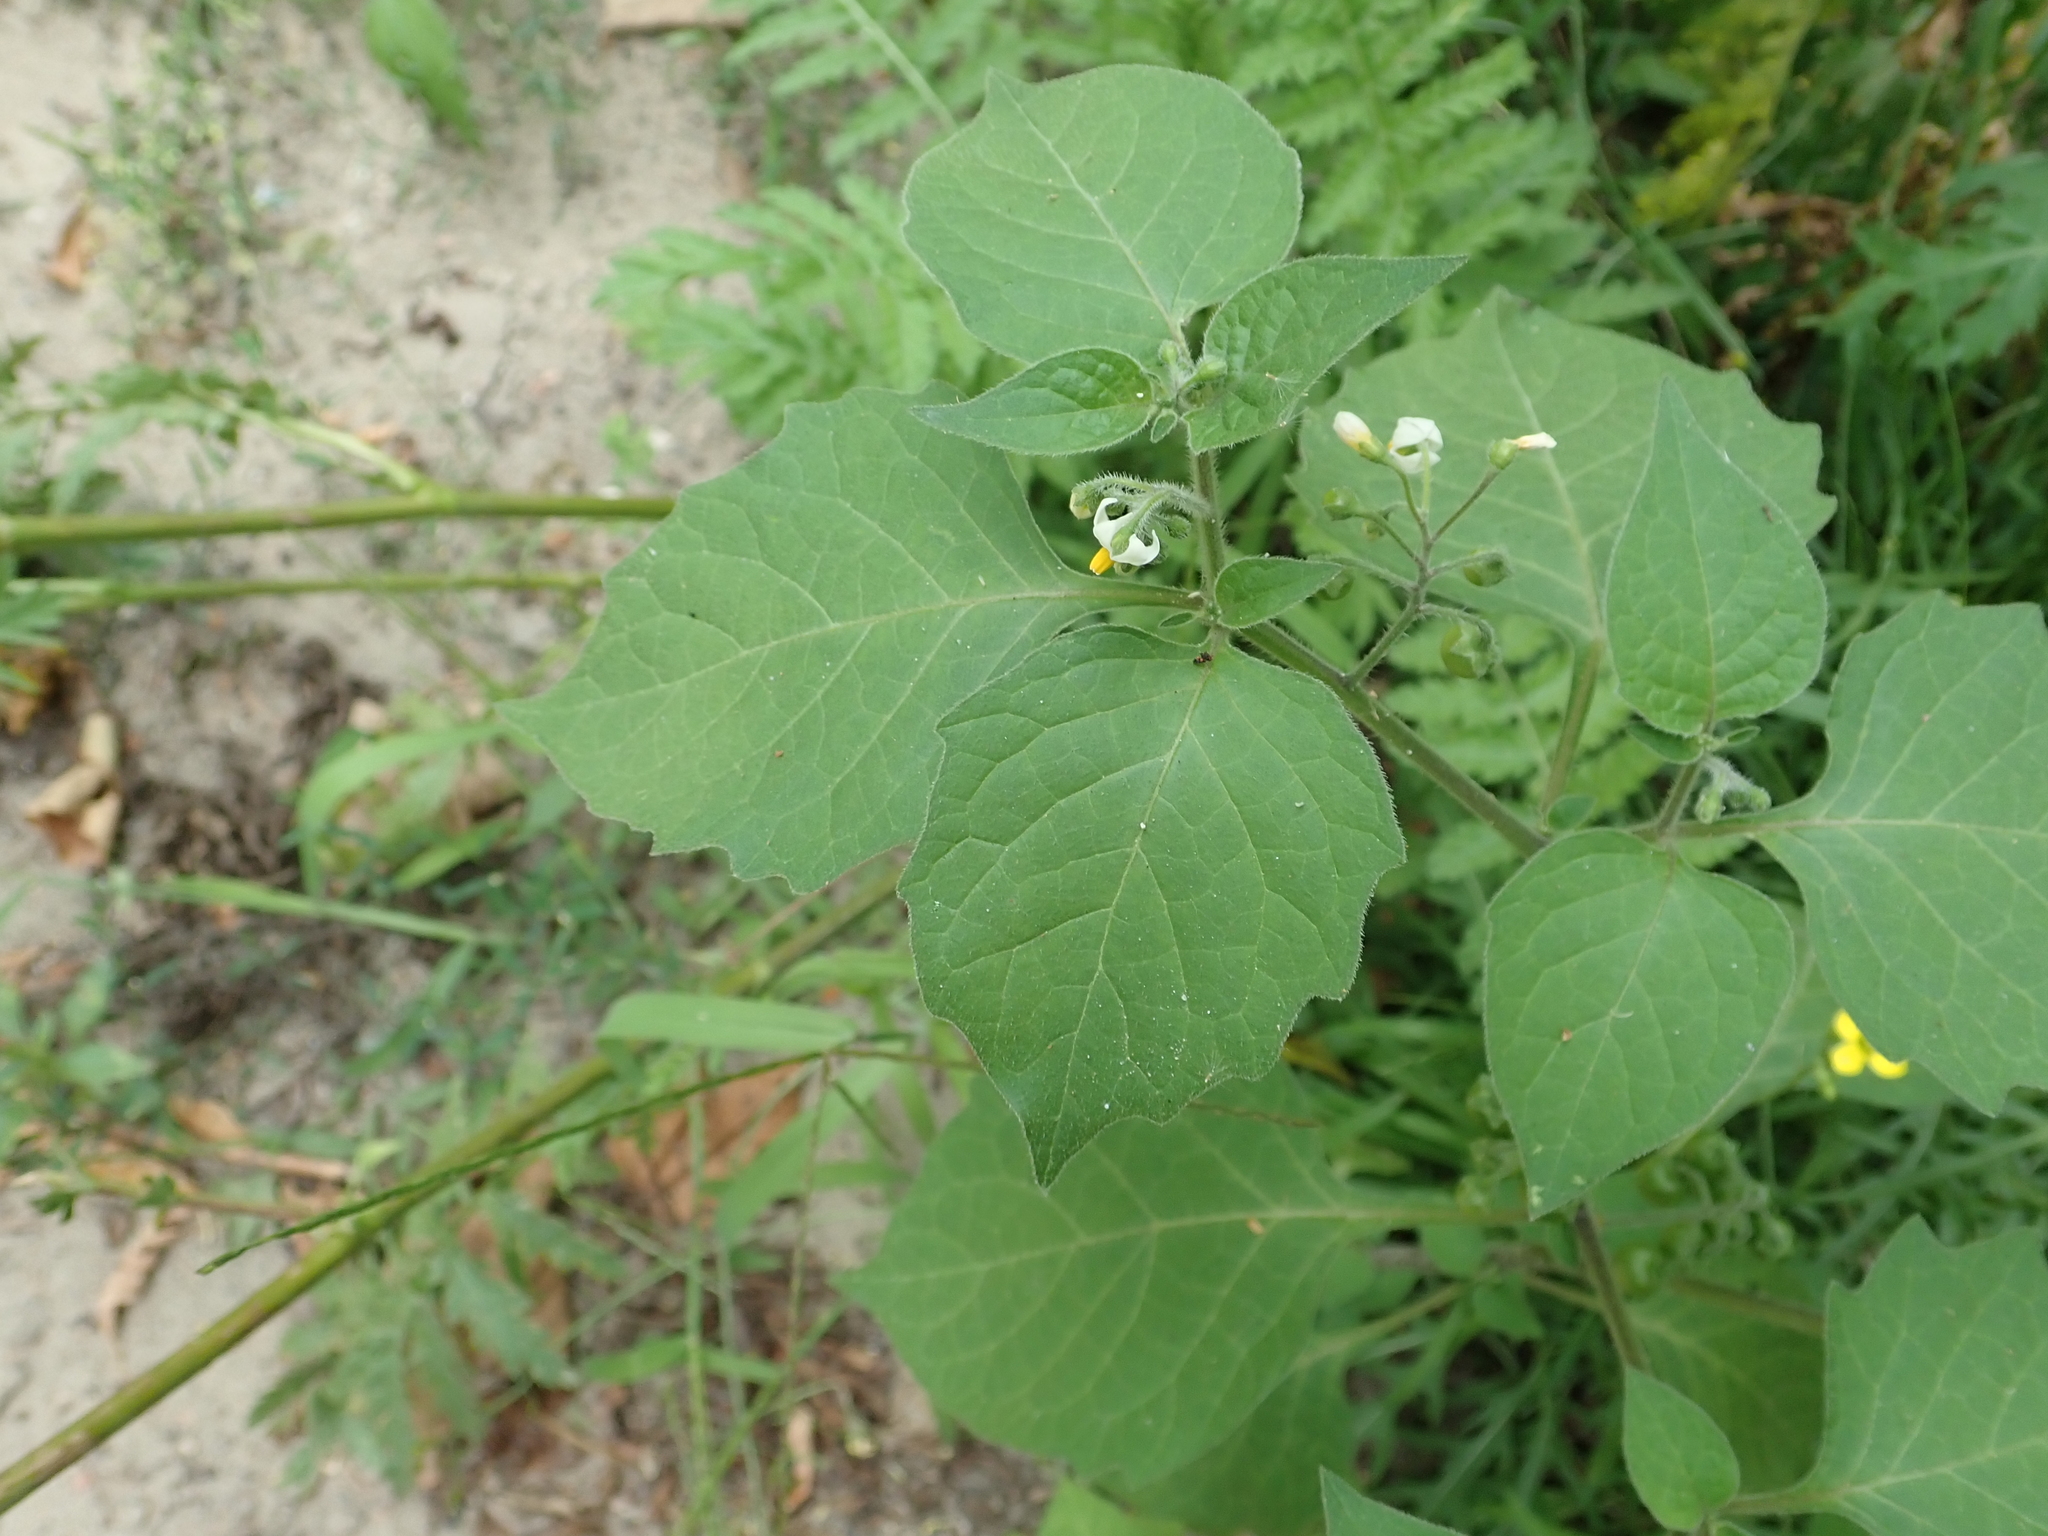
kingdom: Plantae
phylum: Tracheophyta
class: Magnoliopsida
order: Solanales
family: Solanaceae
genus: Solanum
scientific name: Solanum nigrum
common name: Black nightshade
